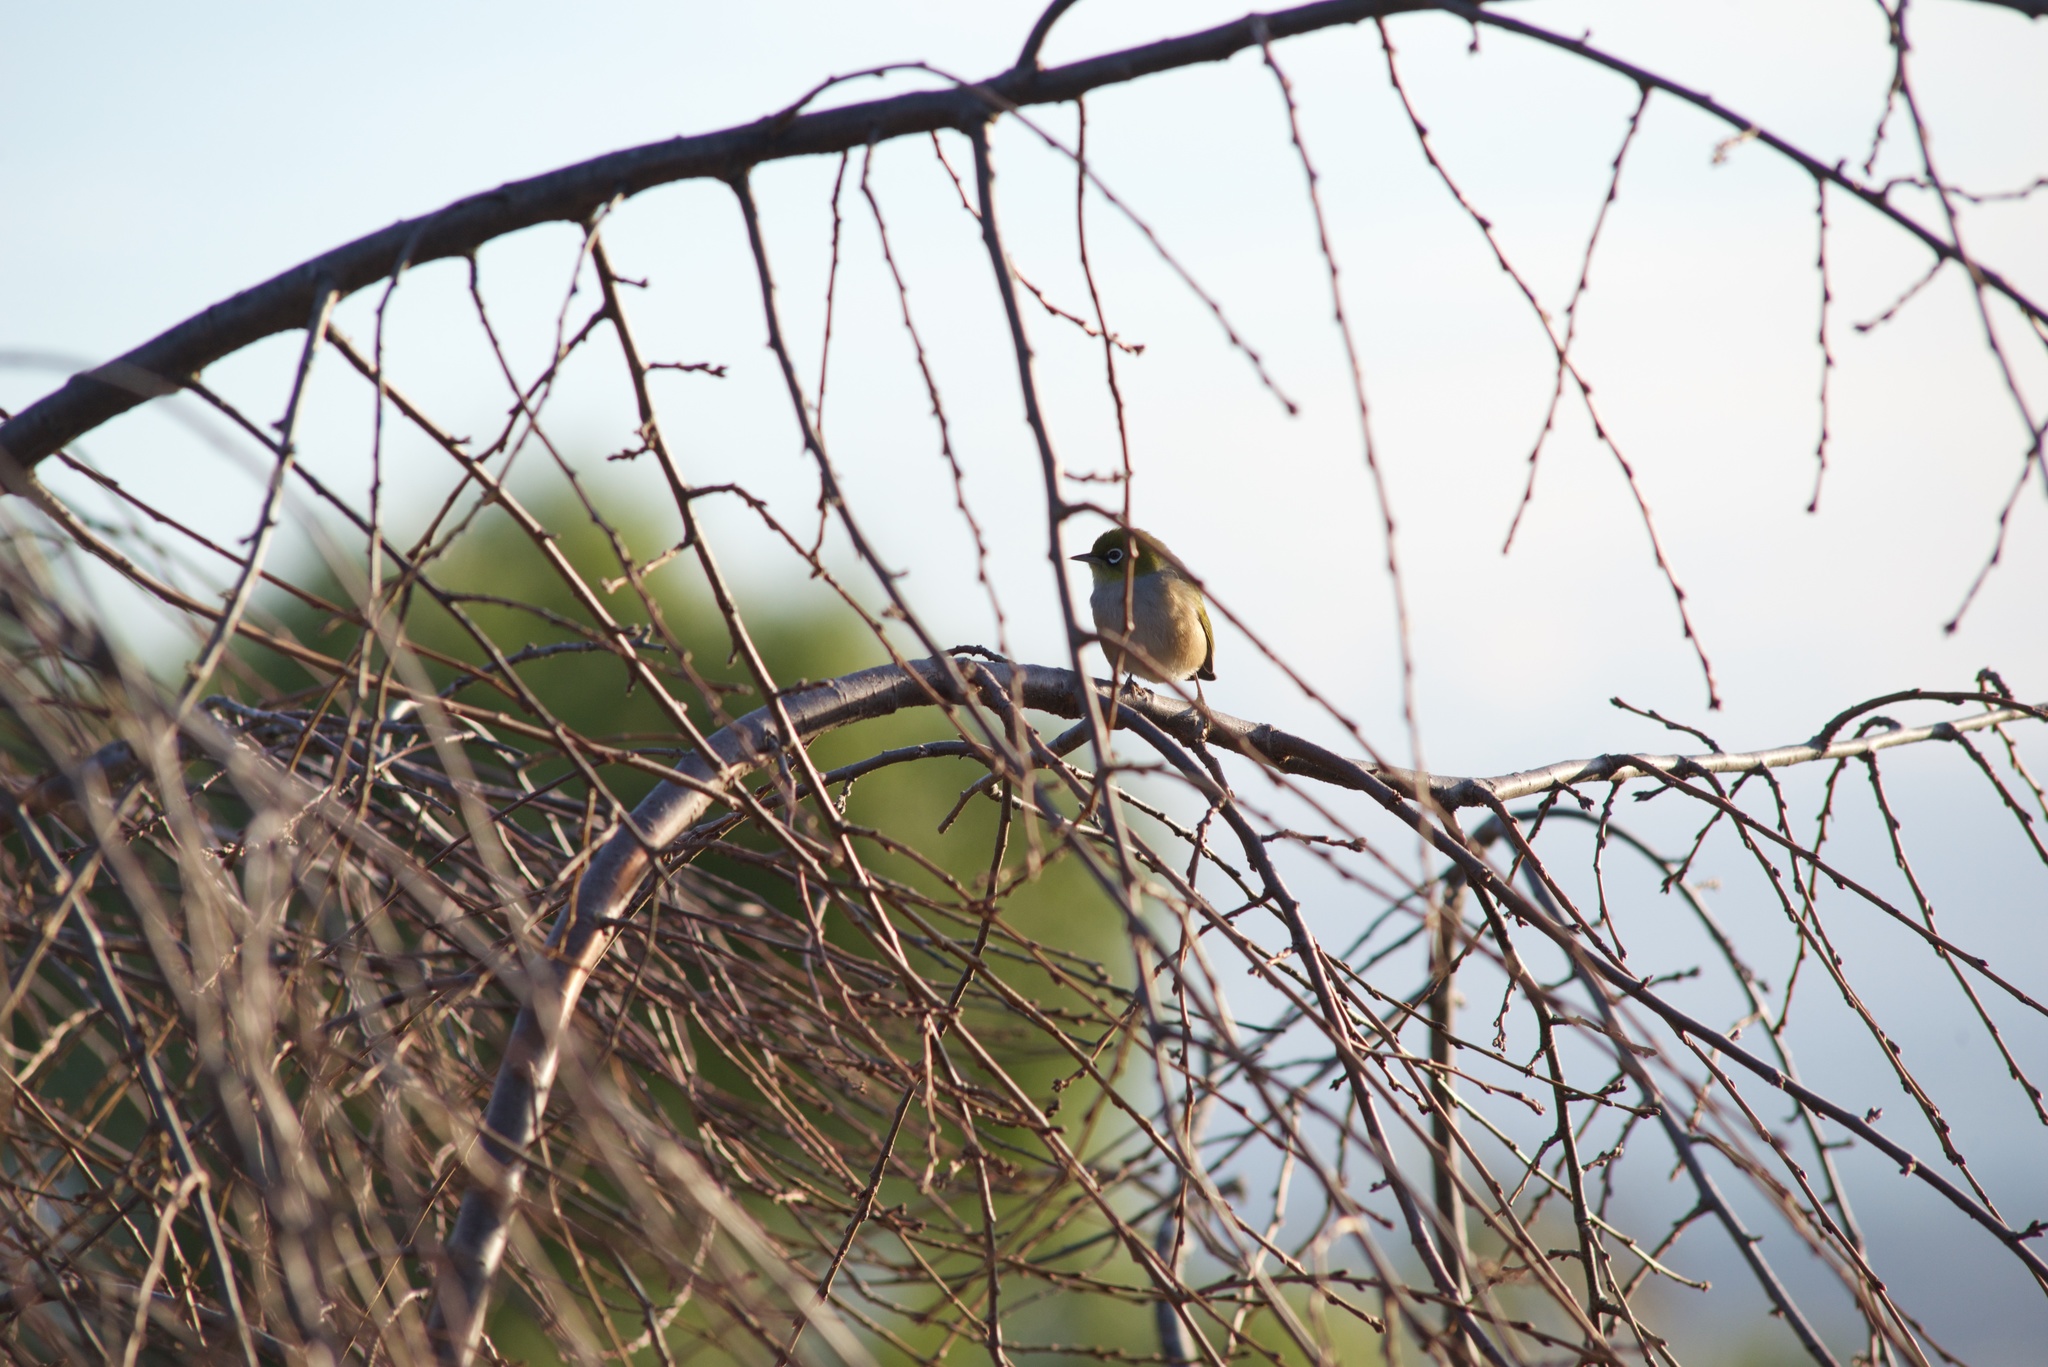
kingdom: Animalia
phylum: Chordata
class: Aves
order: Passeriformes
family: Zosteropidae
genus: Zosterops
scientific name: Zosterops lateralis
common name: Silvereye
